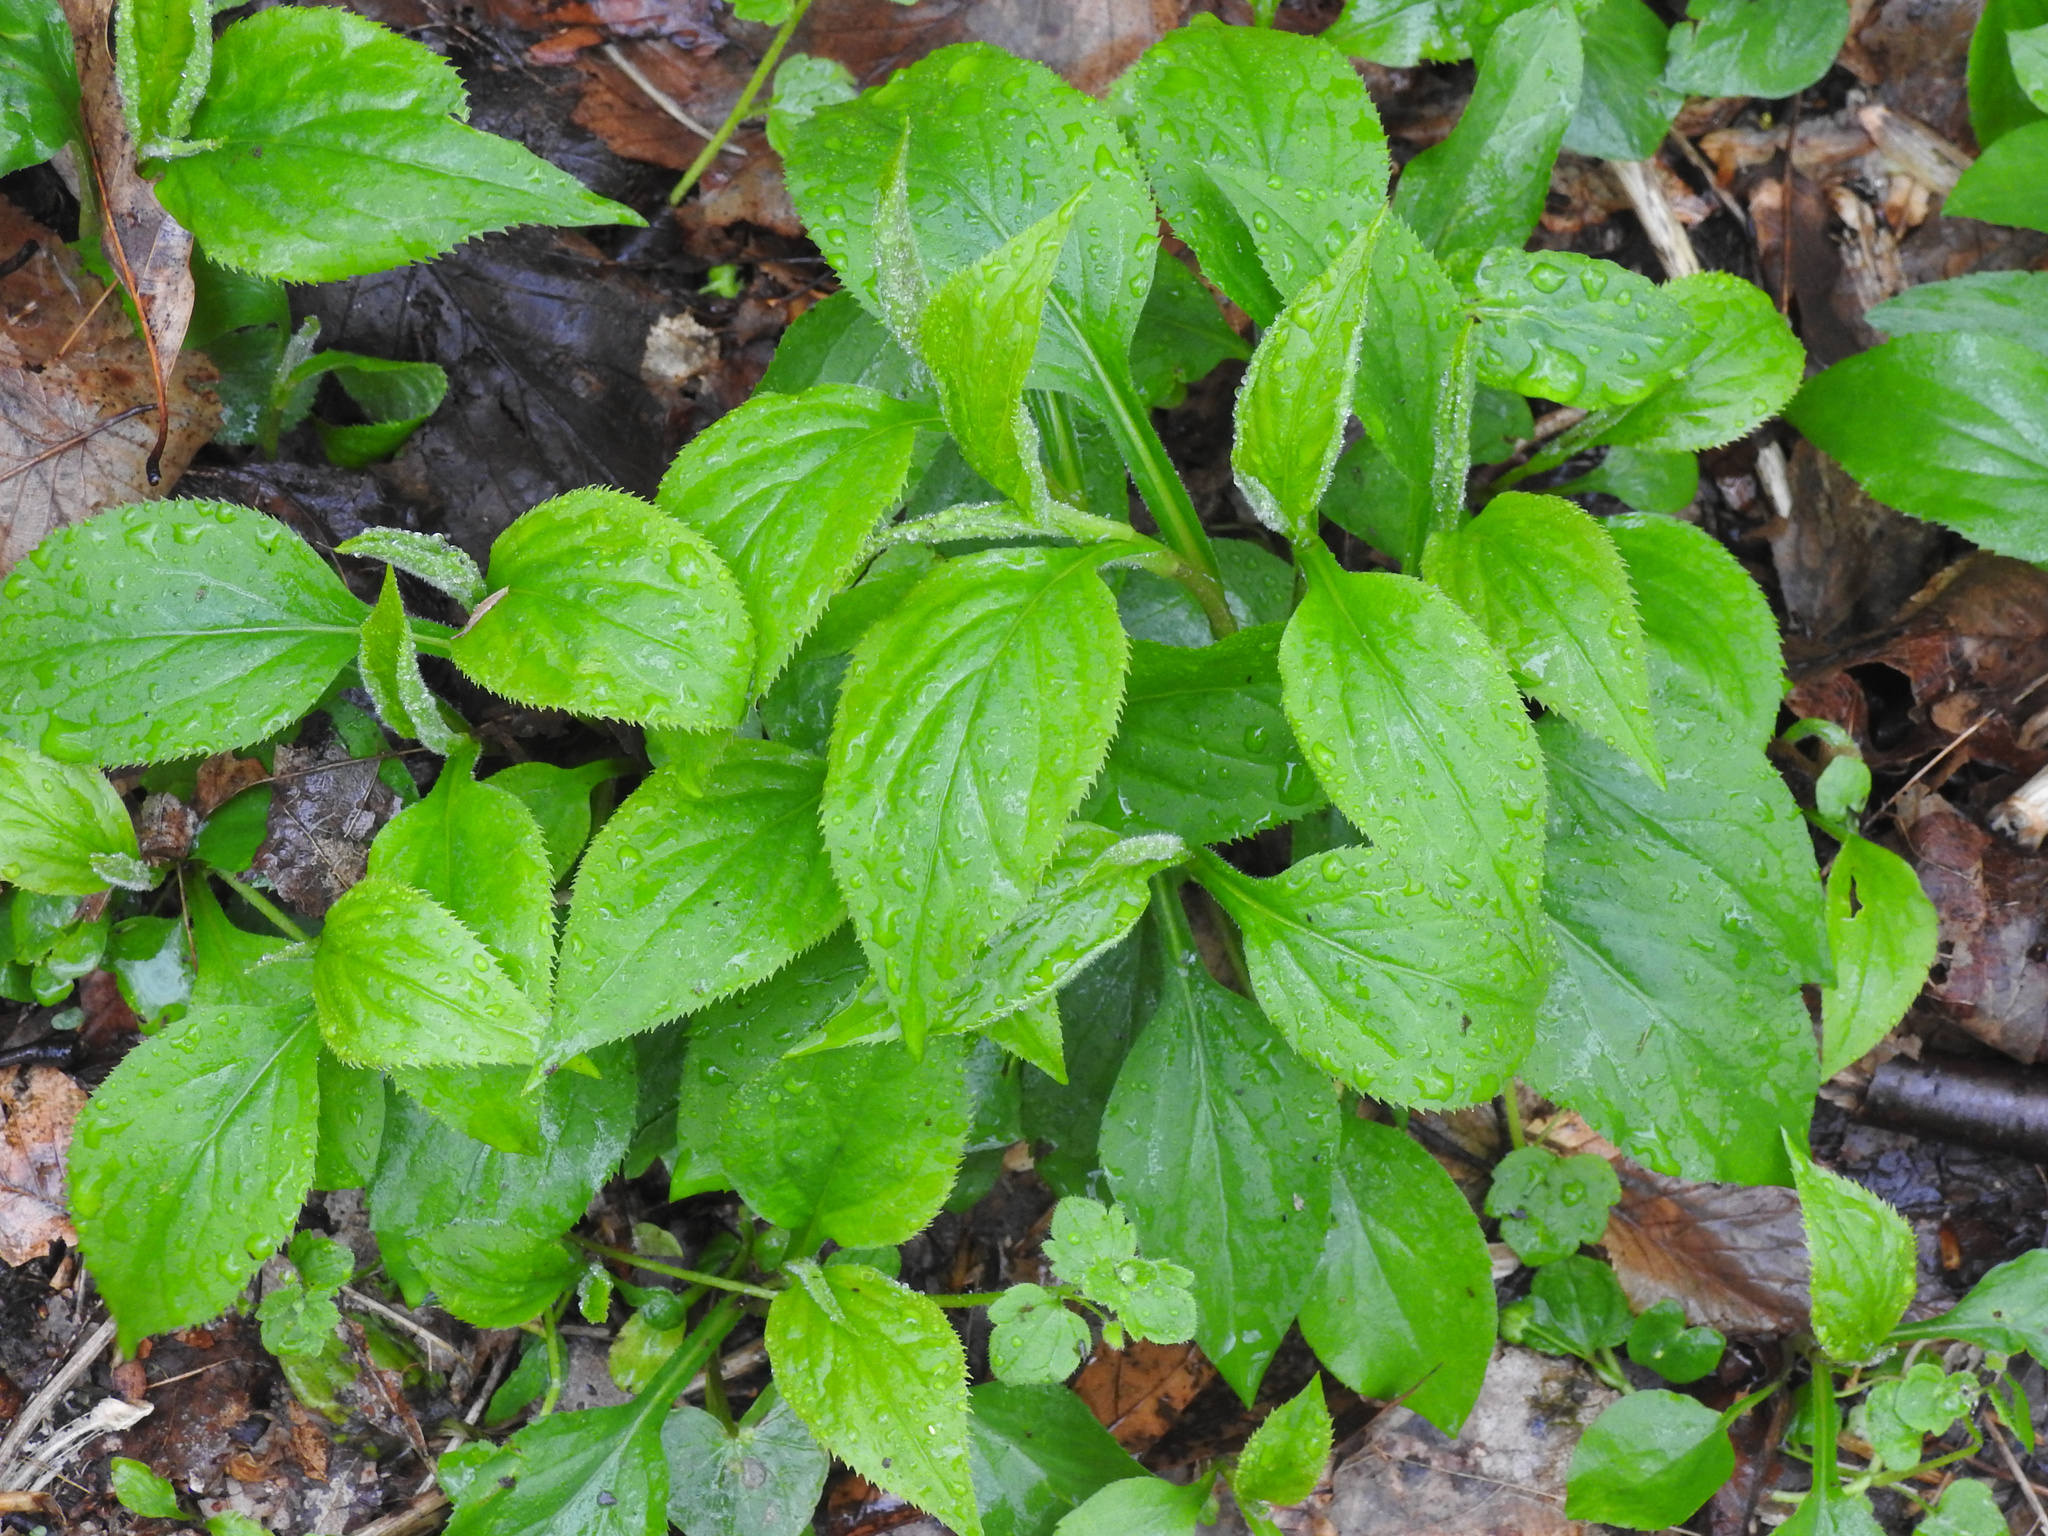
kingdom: Plantae
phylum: Tracheophyta
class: Magnoliopsida
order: Asterales
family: Asteraceae
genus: Solidago
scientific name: Solidago flexicaulis
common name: Zig-zag goldenrod
